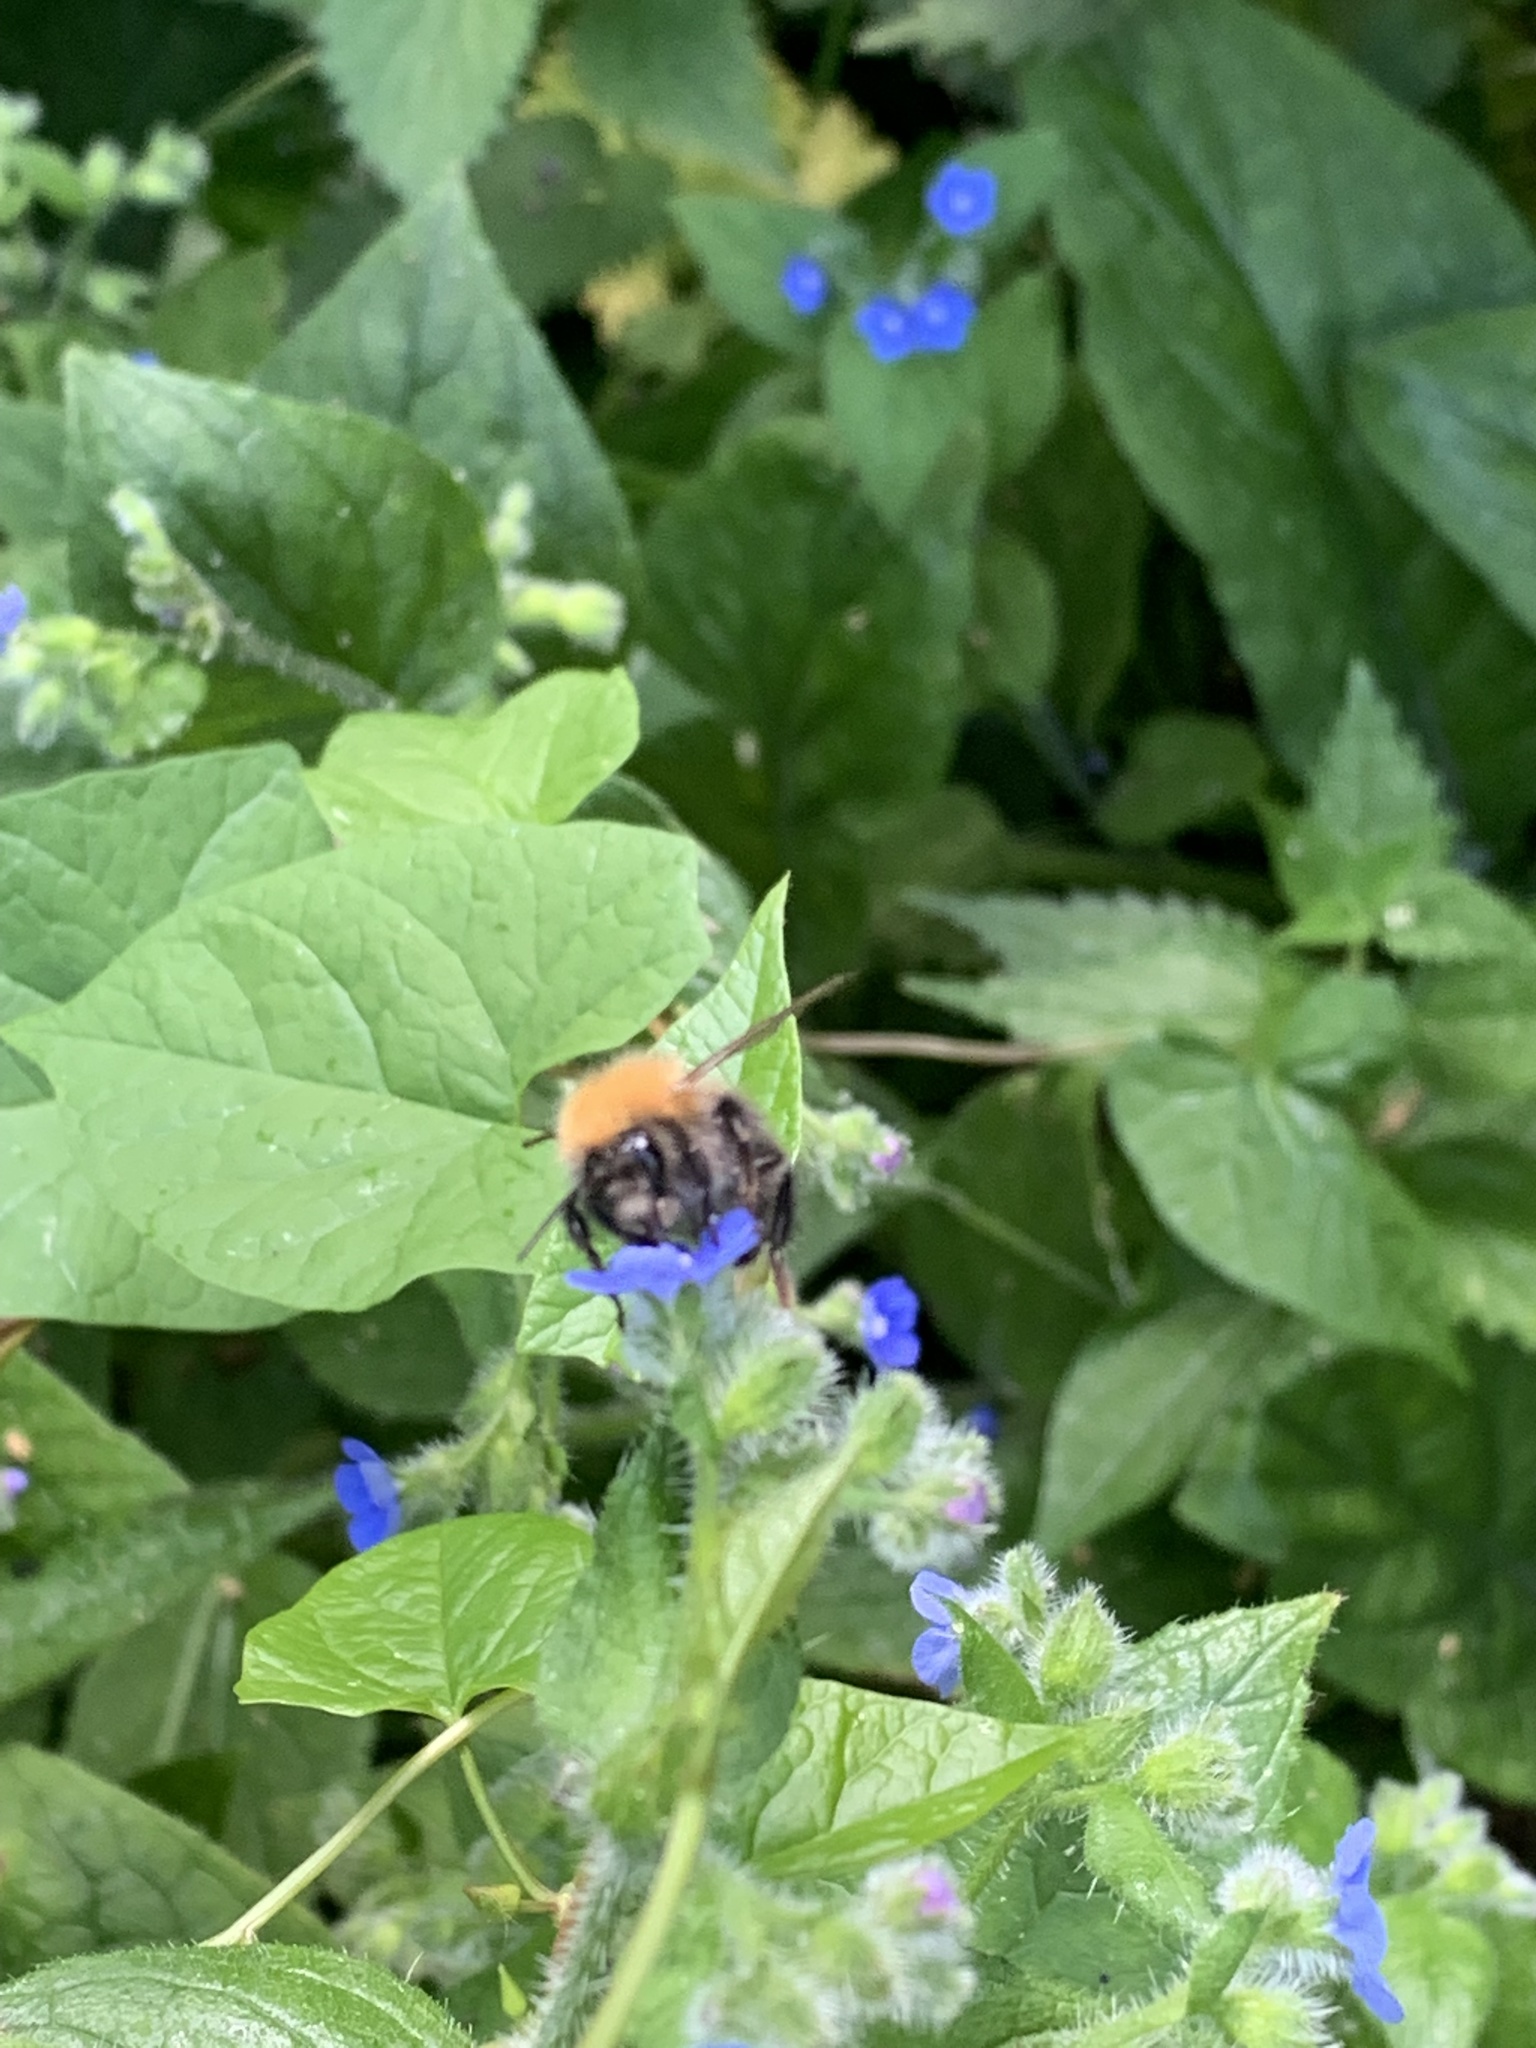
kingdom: Animalia
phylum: Arthropoda
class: Insecta
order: Hymenoptera
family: Apidae
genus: Bombus
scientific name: Bombus hypnorum
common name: New garden bumblebee
